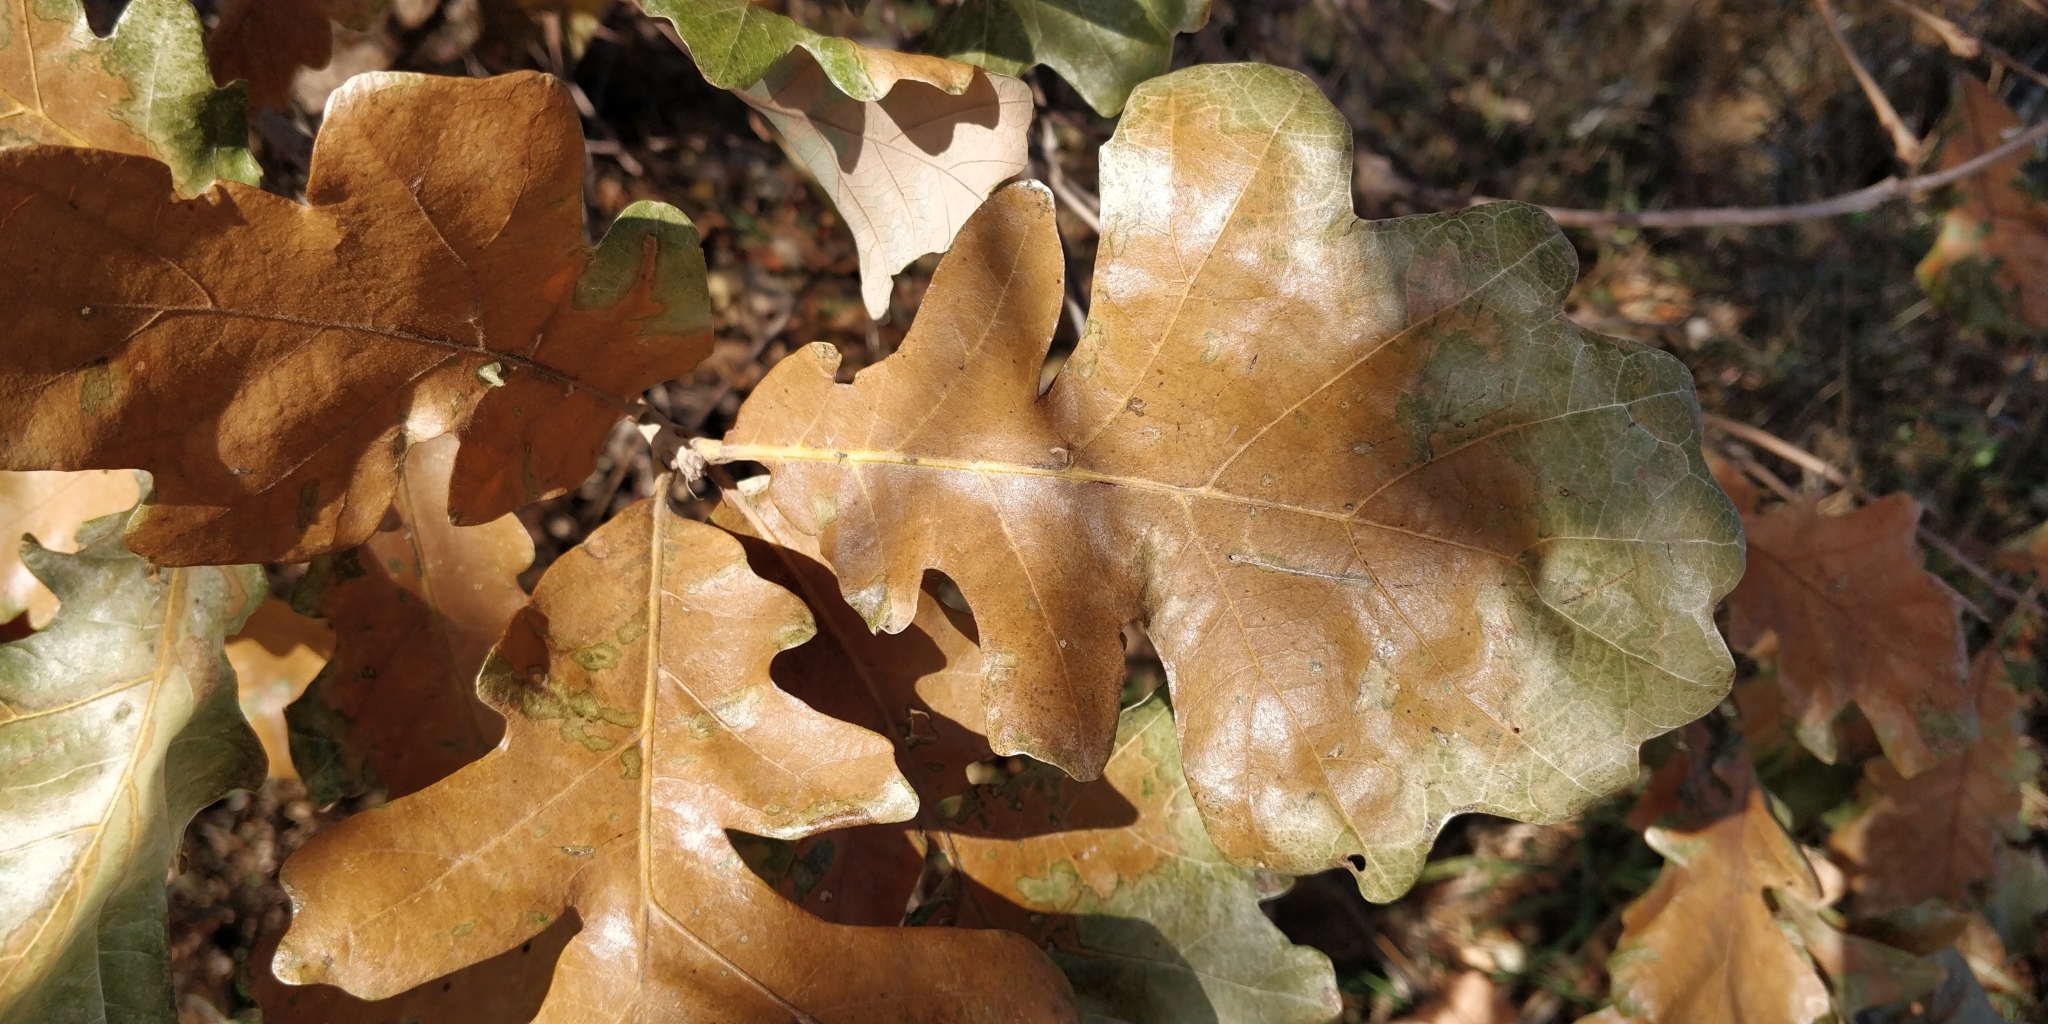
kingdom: Plantae
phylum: Tracheophyta
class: Magnoliopsida
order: Fagales
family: Fagaceae
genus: Quercus
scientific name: Quercus macrocarpa
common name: Bur oak
